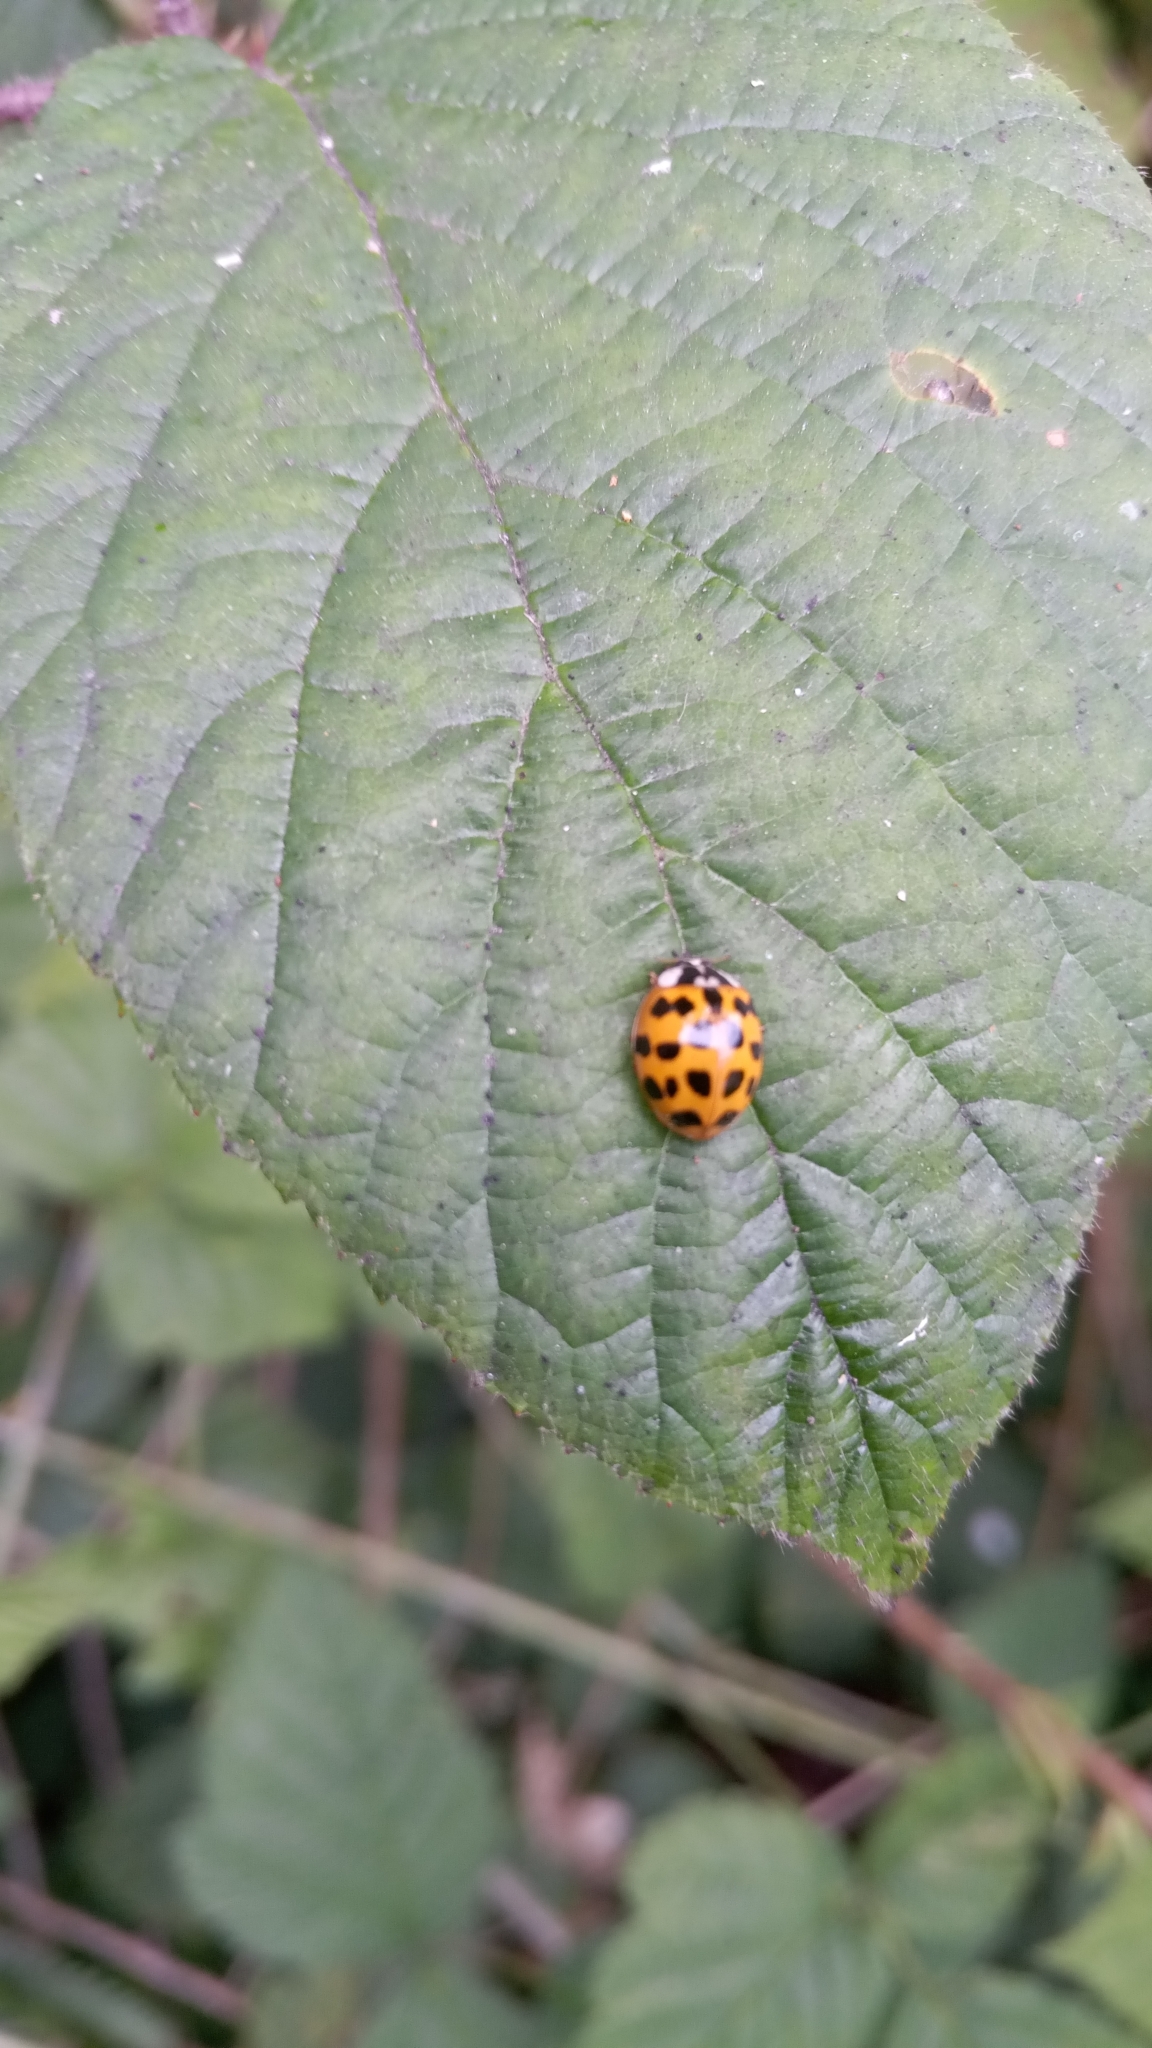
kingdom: Animalia
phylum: Arthropoda
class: Insecta
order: Coleoptera
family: Coccinellidae
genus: Harmonia
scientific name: Harmonia axyridis
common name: Harlequin ladybird
